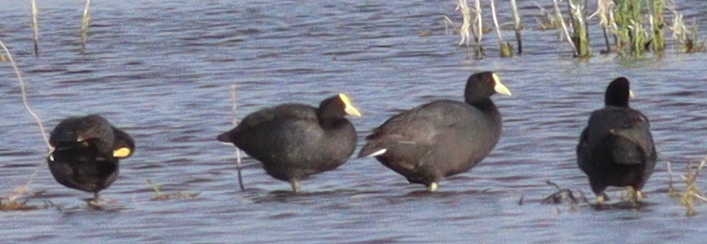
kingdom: Animalia
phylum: Chordata
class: Aves
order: Gruiformes
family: Rallidae
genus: Fulica
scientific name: Fulica leucoptera
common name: White-winged coot
